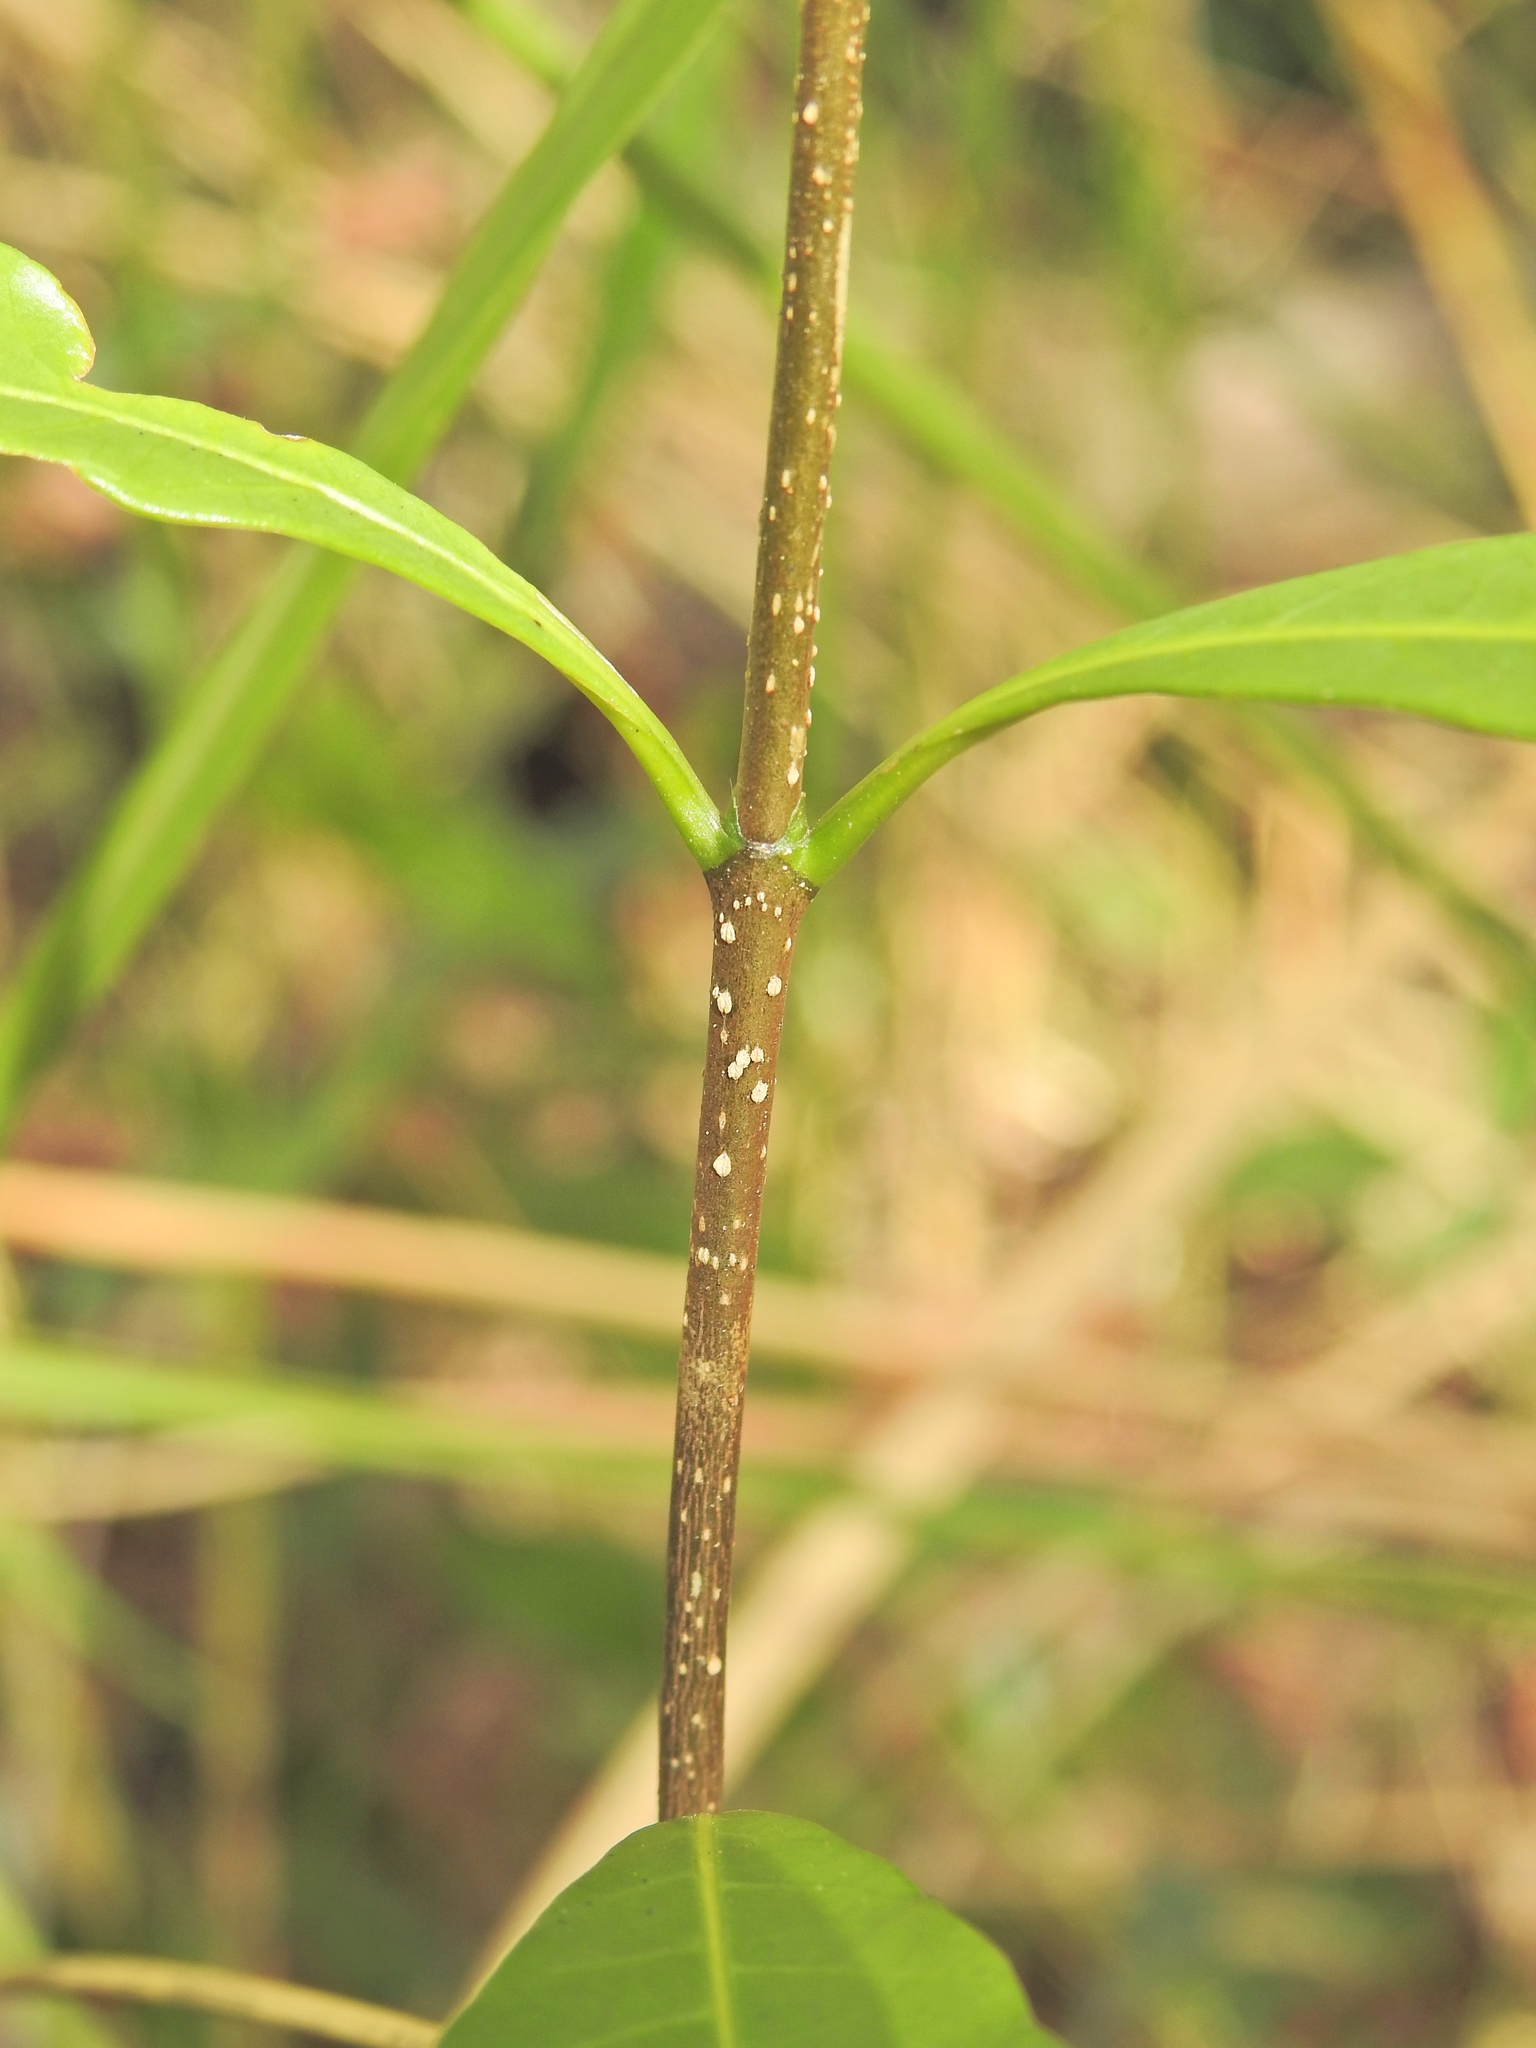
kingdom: Plantae
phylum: Tracheophyta
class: Magnoliopsida
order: Gentianales
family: Apocynaceae
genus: Tabernaemontana
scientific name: Tabernaemontana pandacaqui
